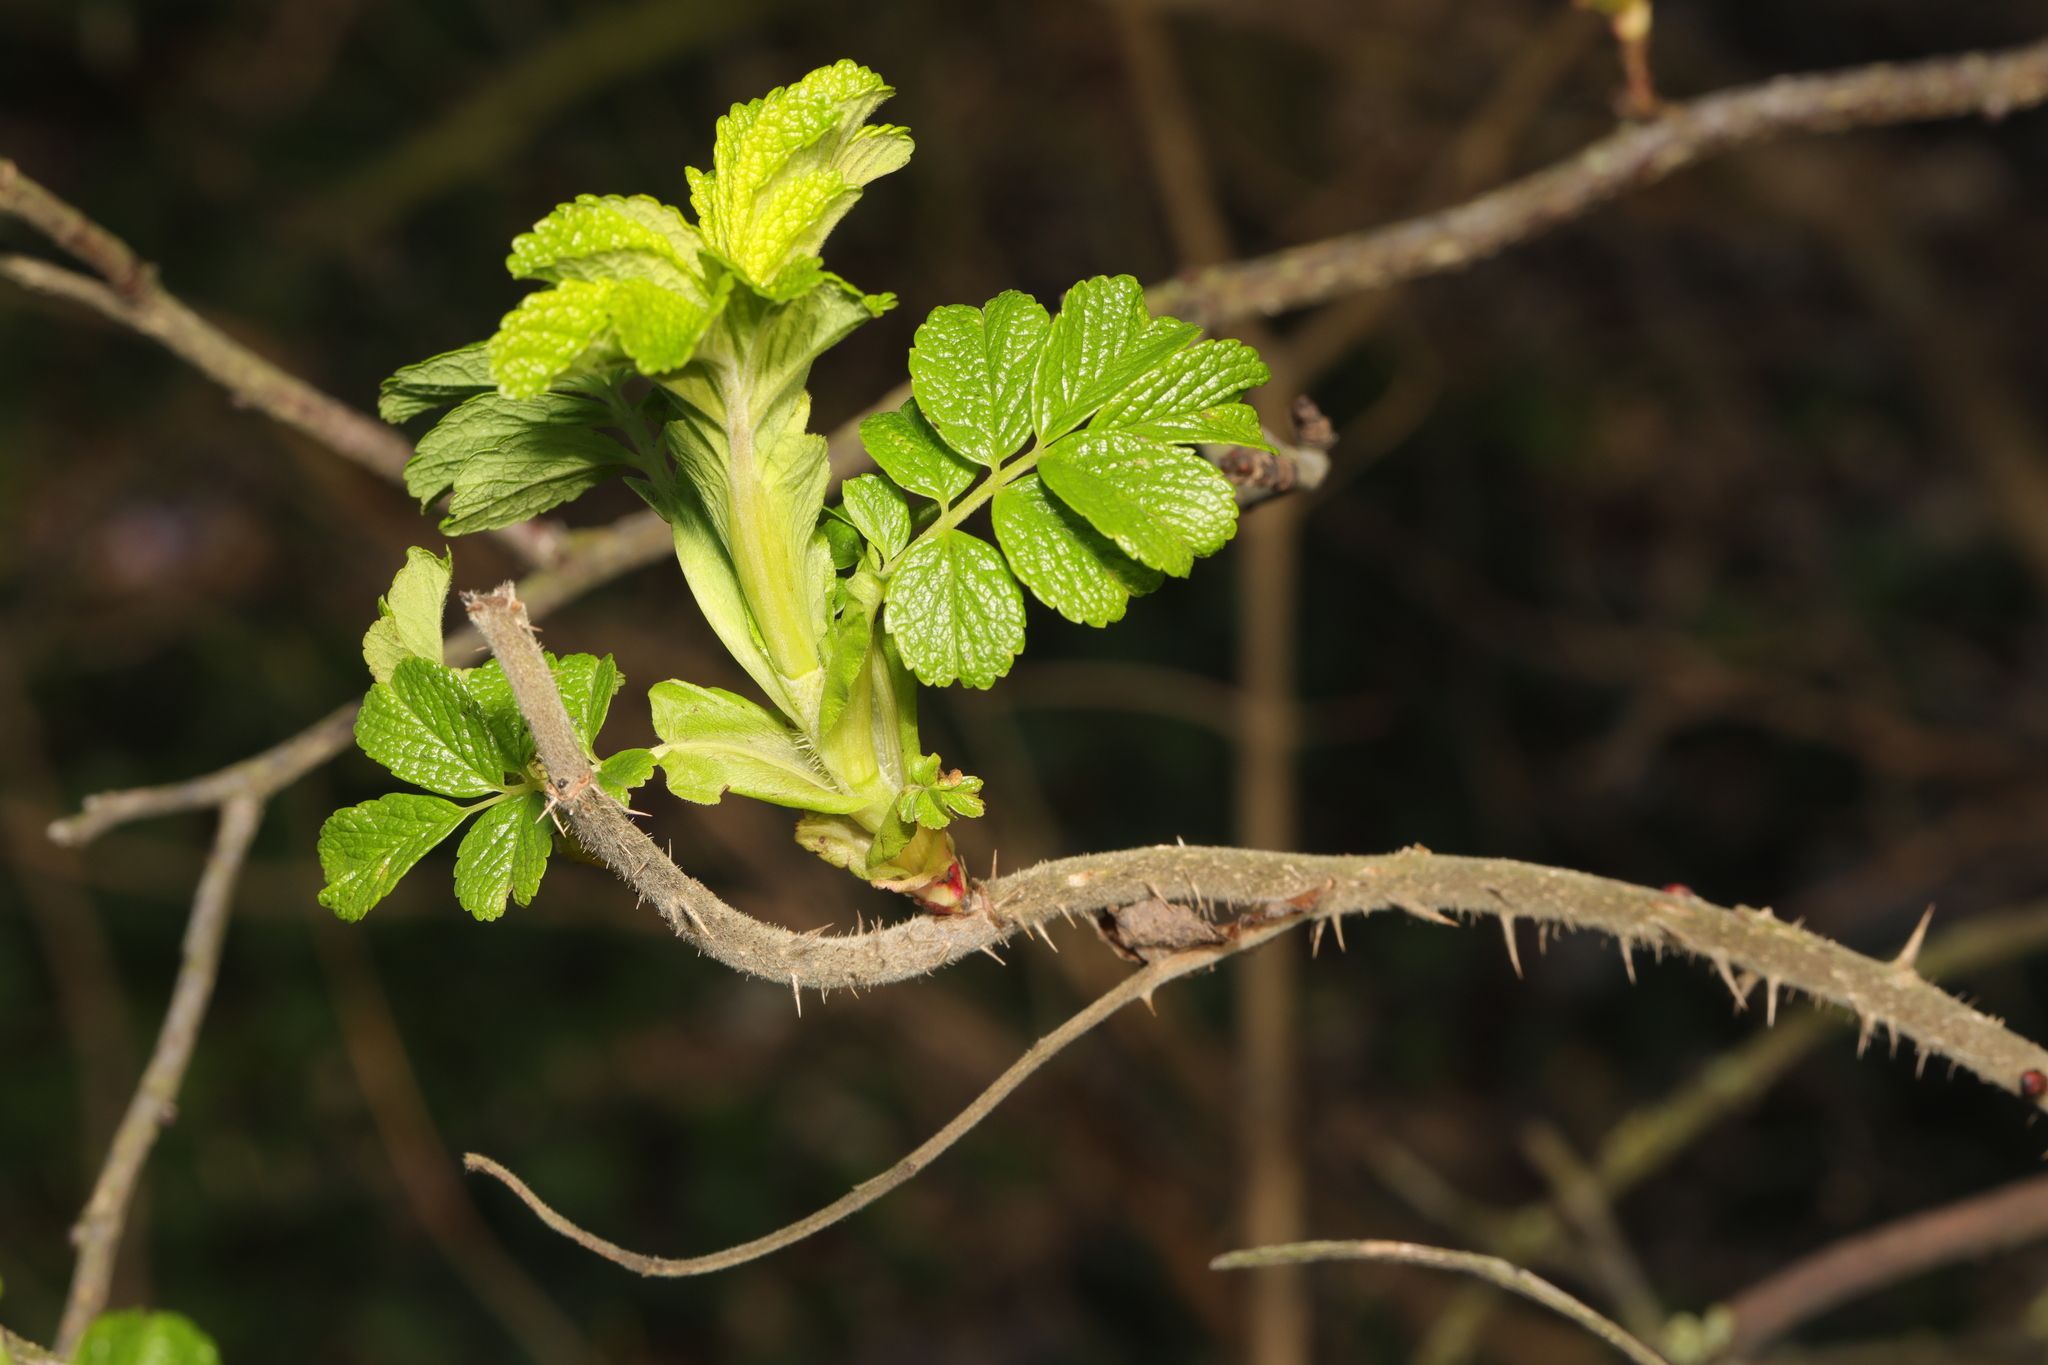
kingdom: Plantae
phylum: Tracheophyta
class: Magnoliopsida
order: Rosales
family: Rosaceae
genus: Rosa
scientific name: Rosa rugosa
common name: Japanese rose
